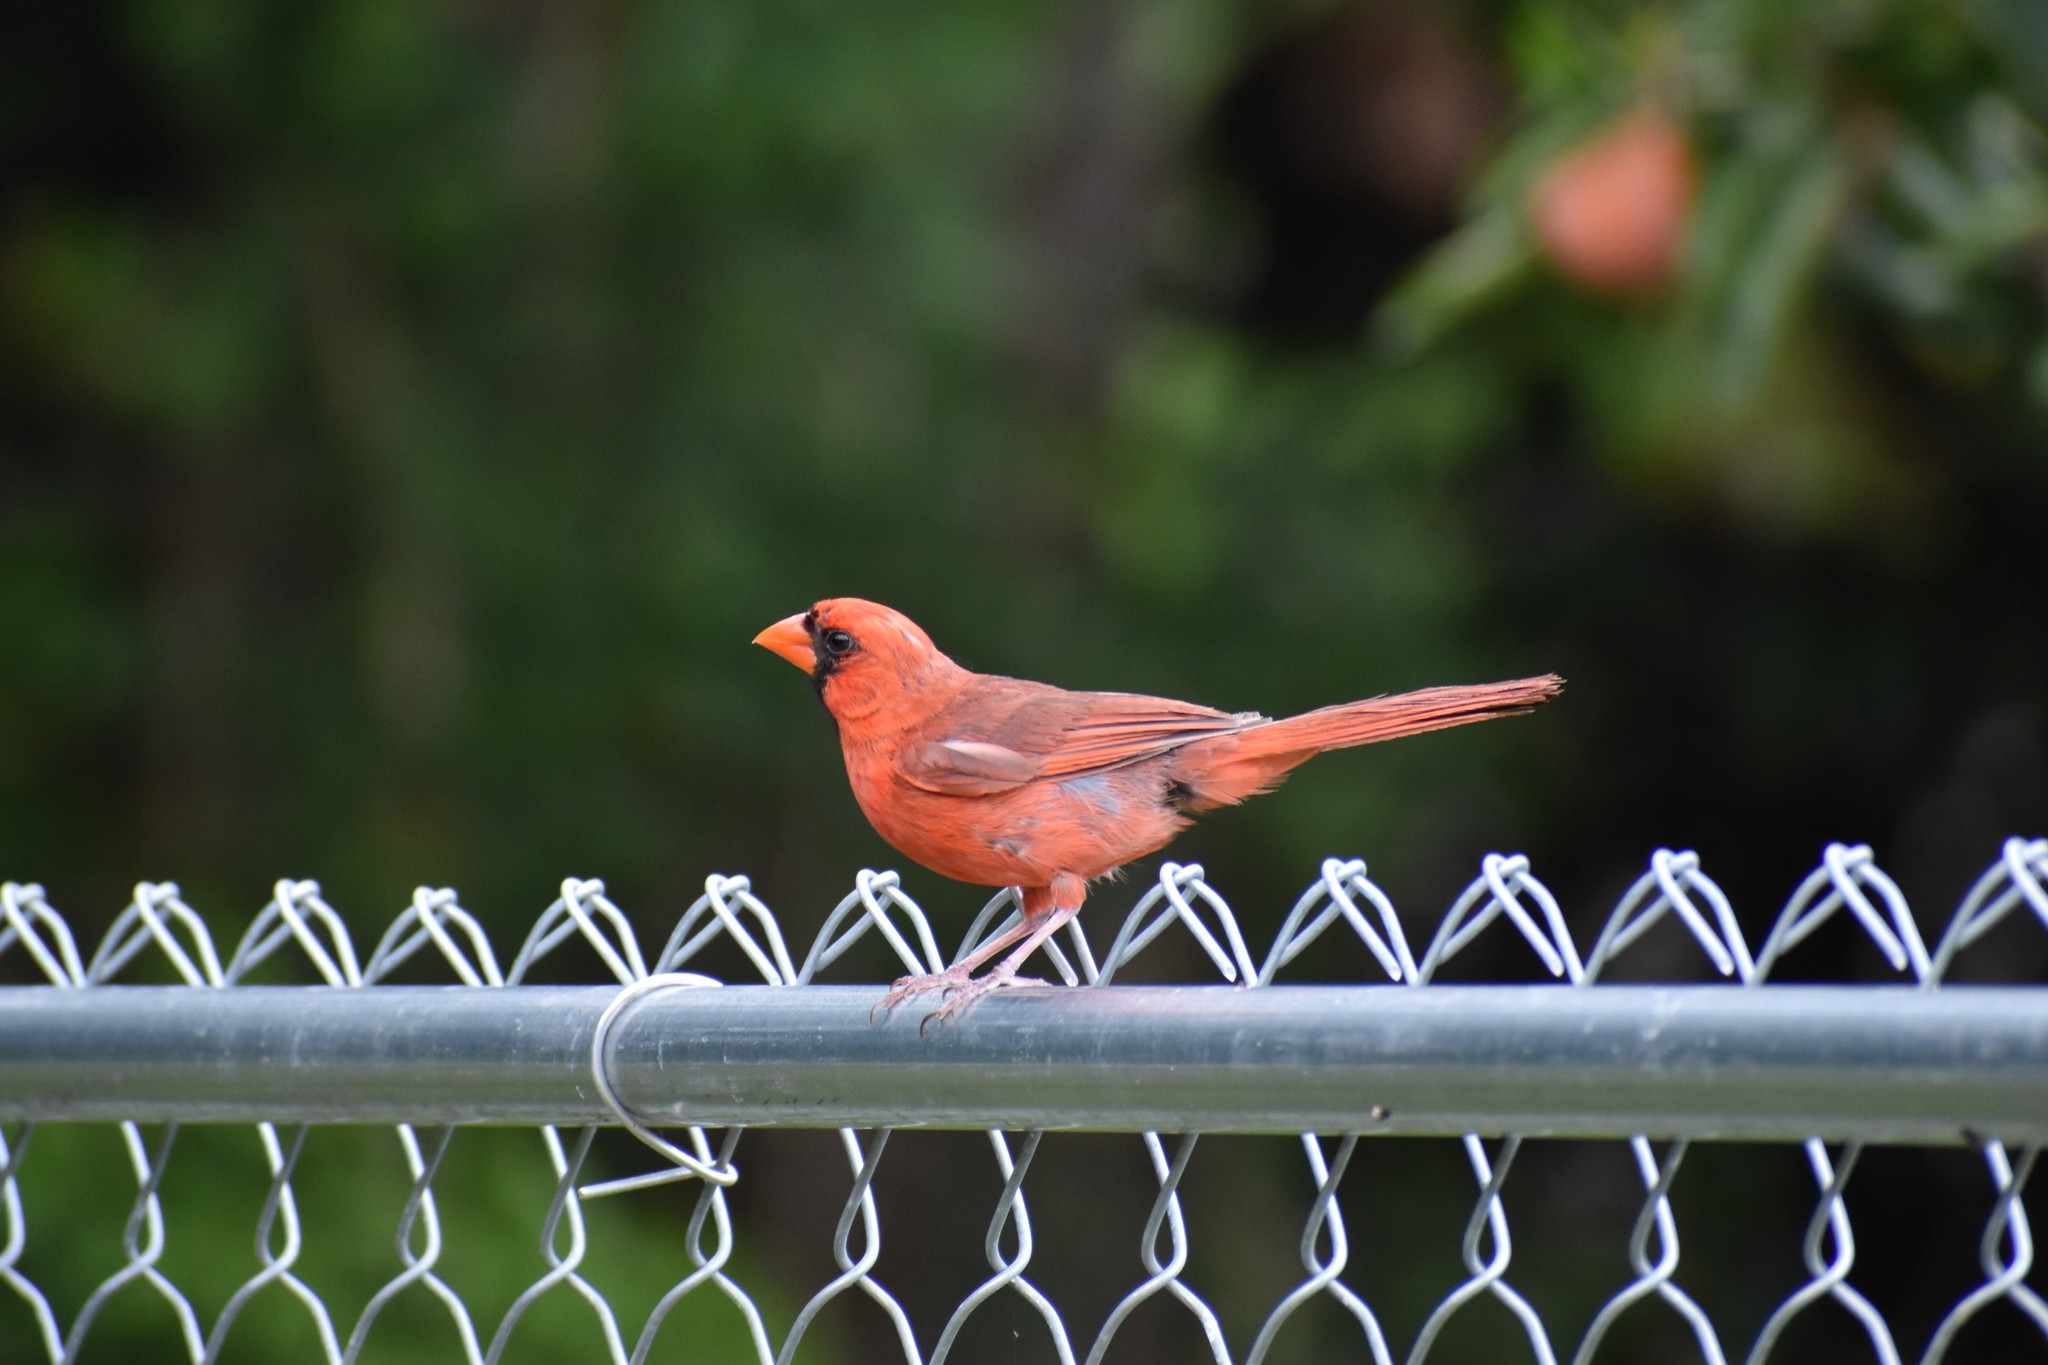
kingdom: Animalia
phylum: Chordata
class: Aves
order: Passeriformes
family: Cardinalidae
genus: Cardinalis
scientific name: Cardinalis cardinalis
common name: Northern cardinal
